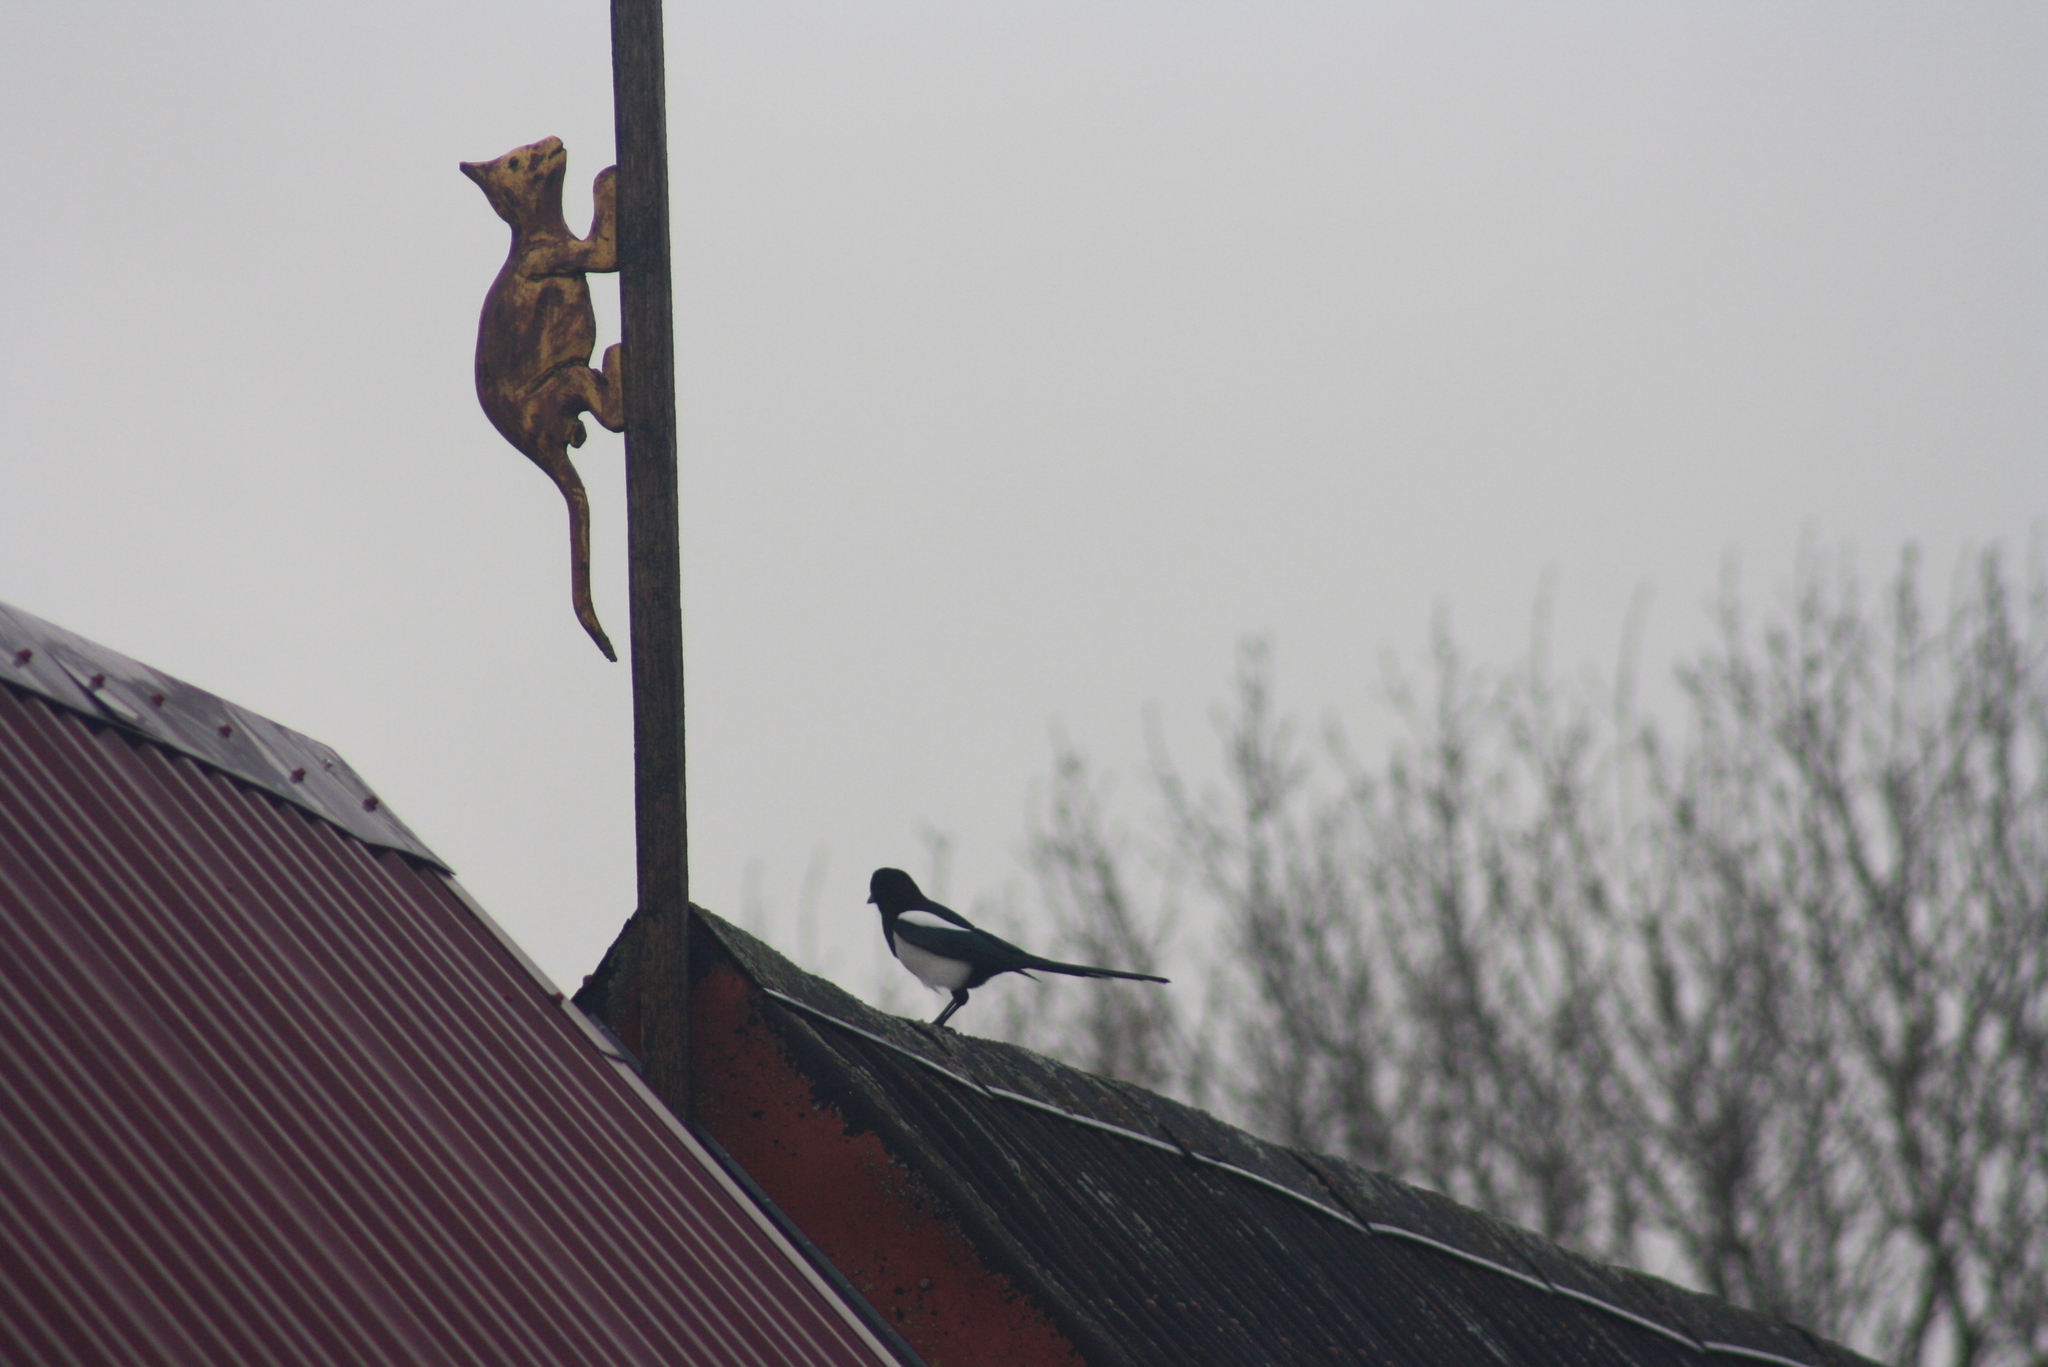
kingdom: Animalia
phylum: Chordata
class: Aves
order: Passeriformes
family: Corvidae
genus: Pica
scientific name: Pica pica
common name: Eurasian magpie
